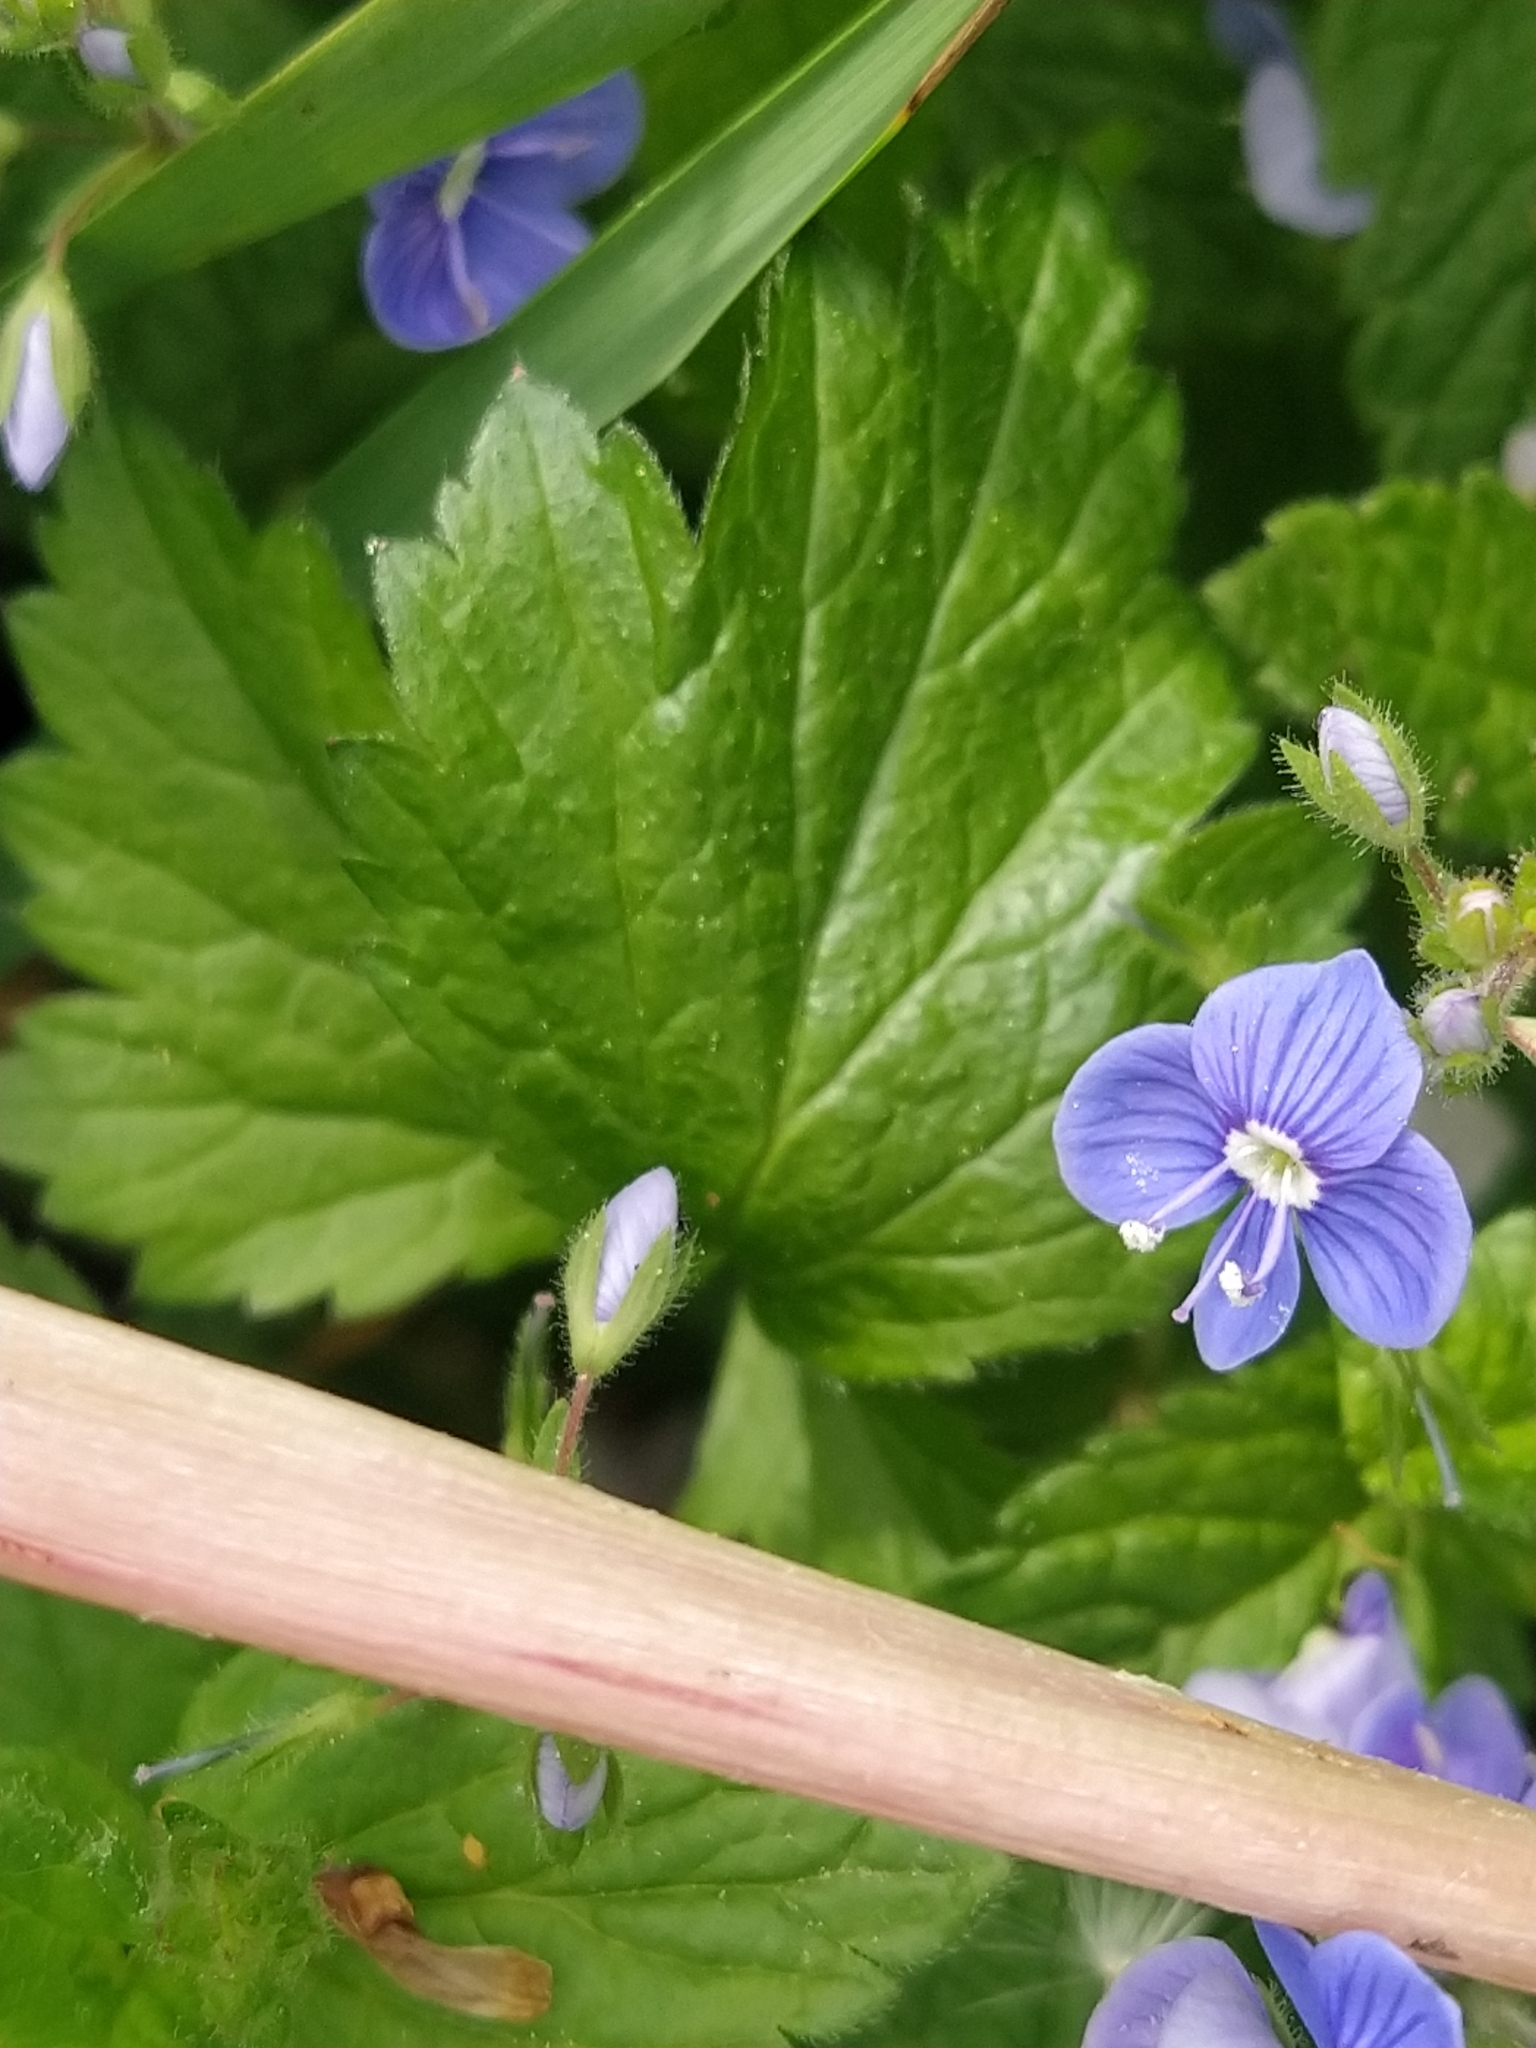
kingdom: Plantae
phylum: Tracheophyta
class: Magnoliopsida
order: Lamiales
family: Plantaginaceae
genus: Veronica
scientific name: Veronica chamaedrys
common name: Germander speedwell
